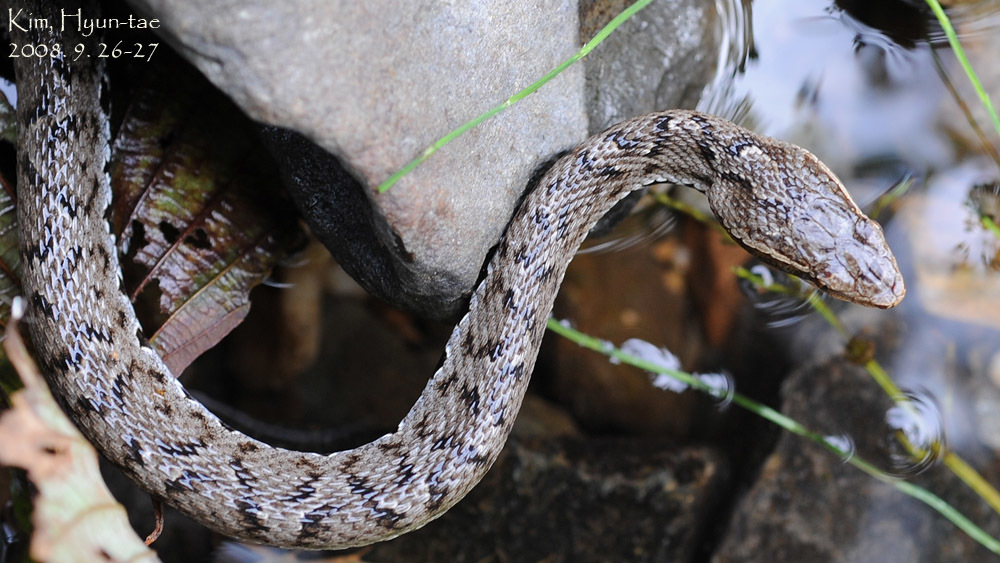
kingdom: Animalia
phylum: Chordata
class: Squamata
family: Viperidae
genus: Gloydius
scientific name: Gloydius ussuriensis
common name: Ussuri mamushi
